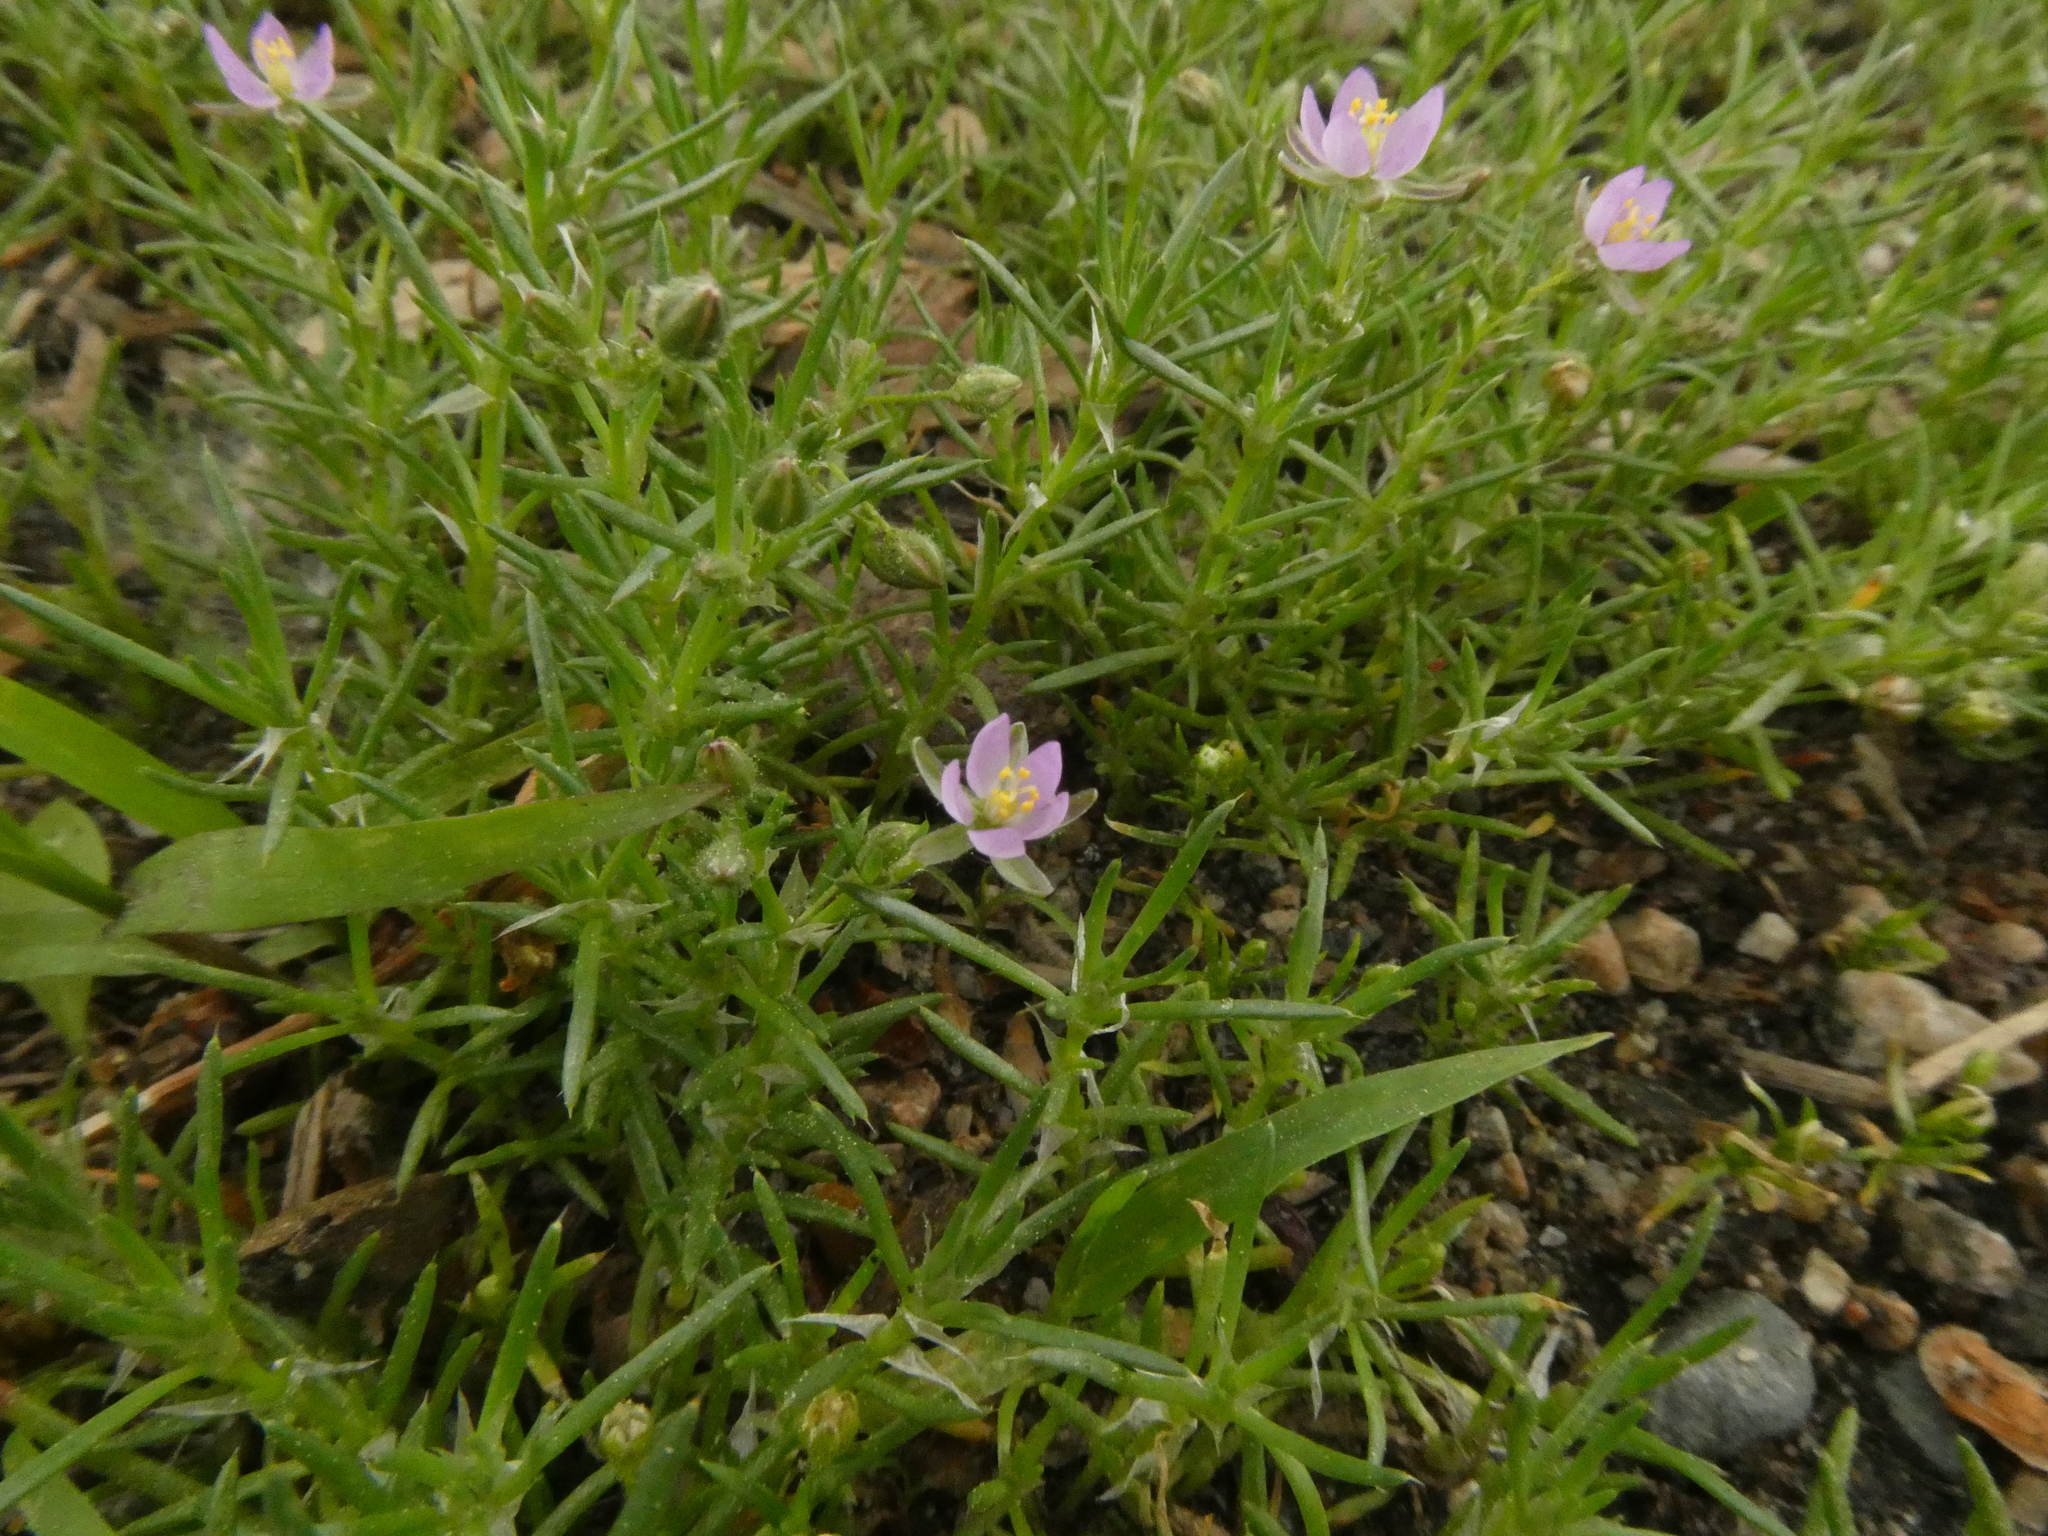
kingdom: Plantae
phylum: Tracheophyta
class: Magnoliopsida
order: Caryophyllales
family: Caryophyllaceae
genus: Spergularia
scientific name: Spergularia rubra
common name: Red sand-spurrey
